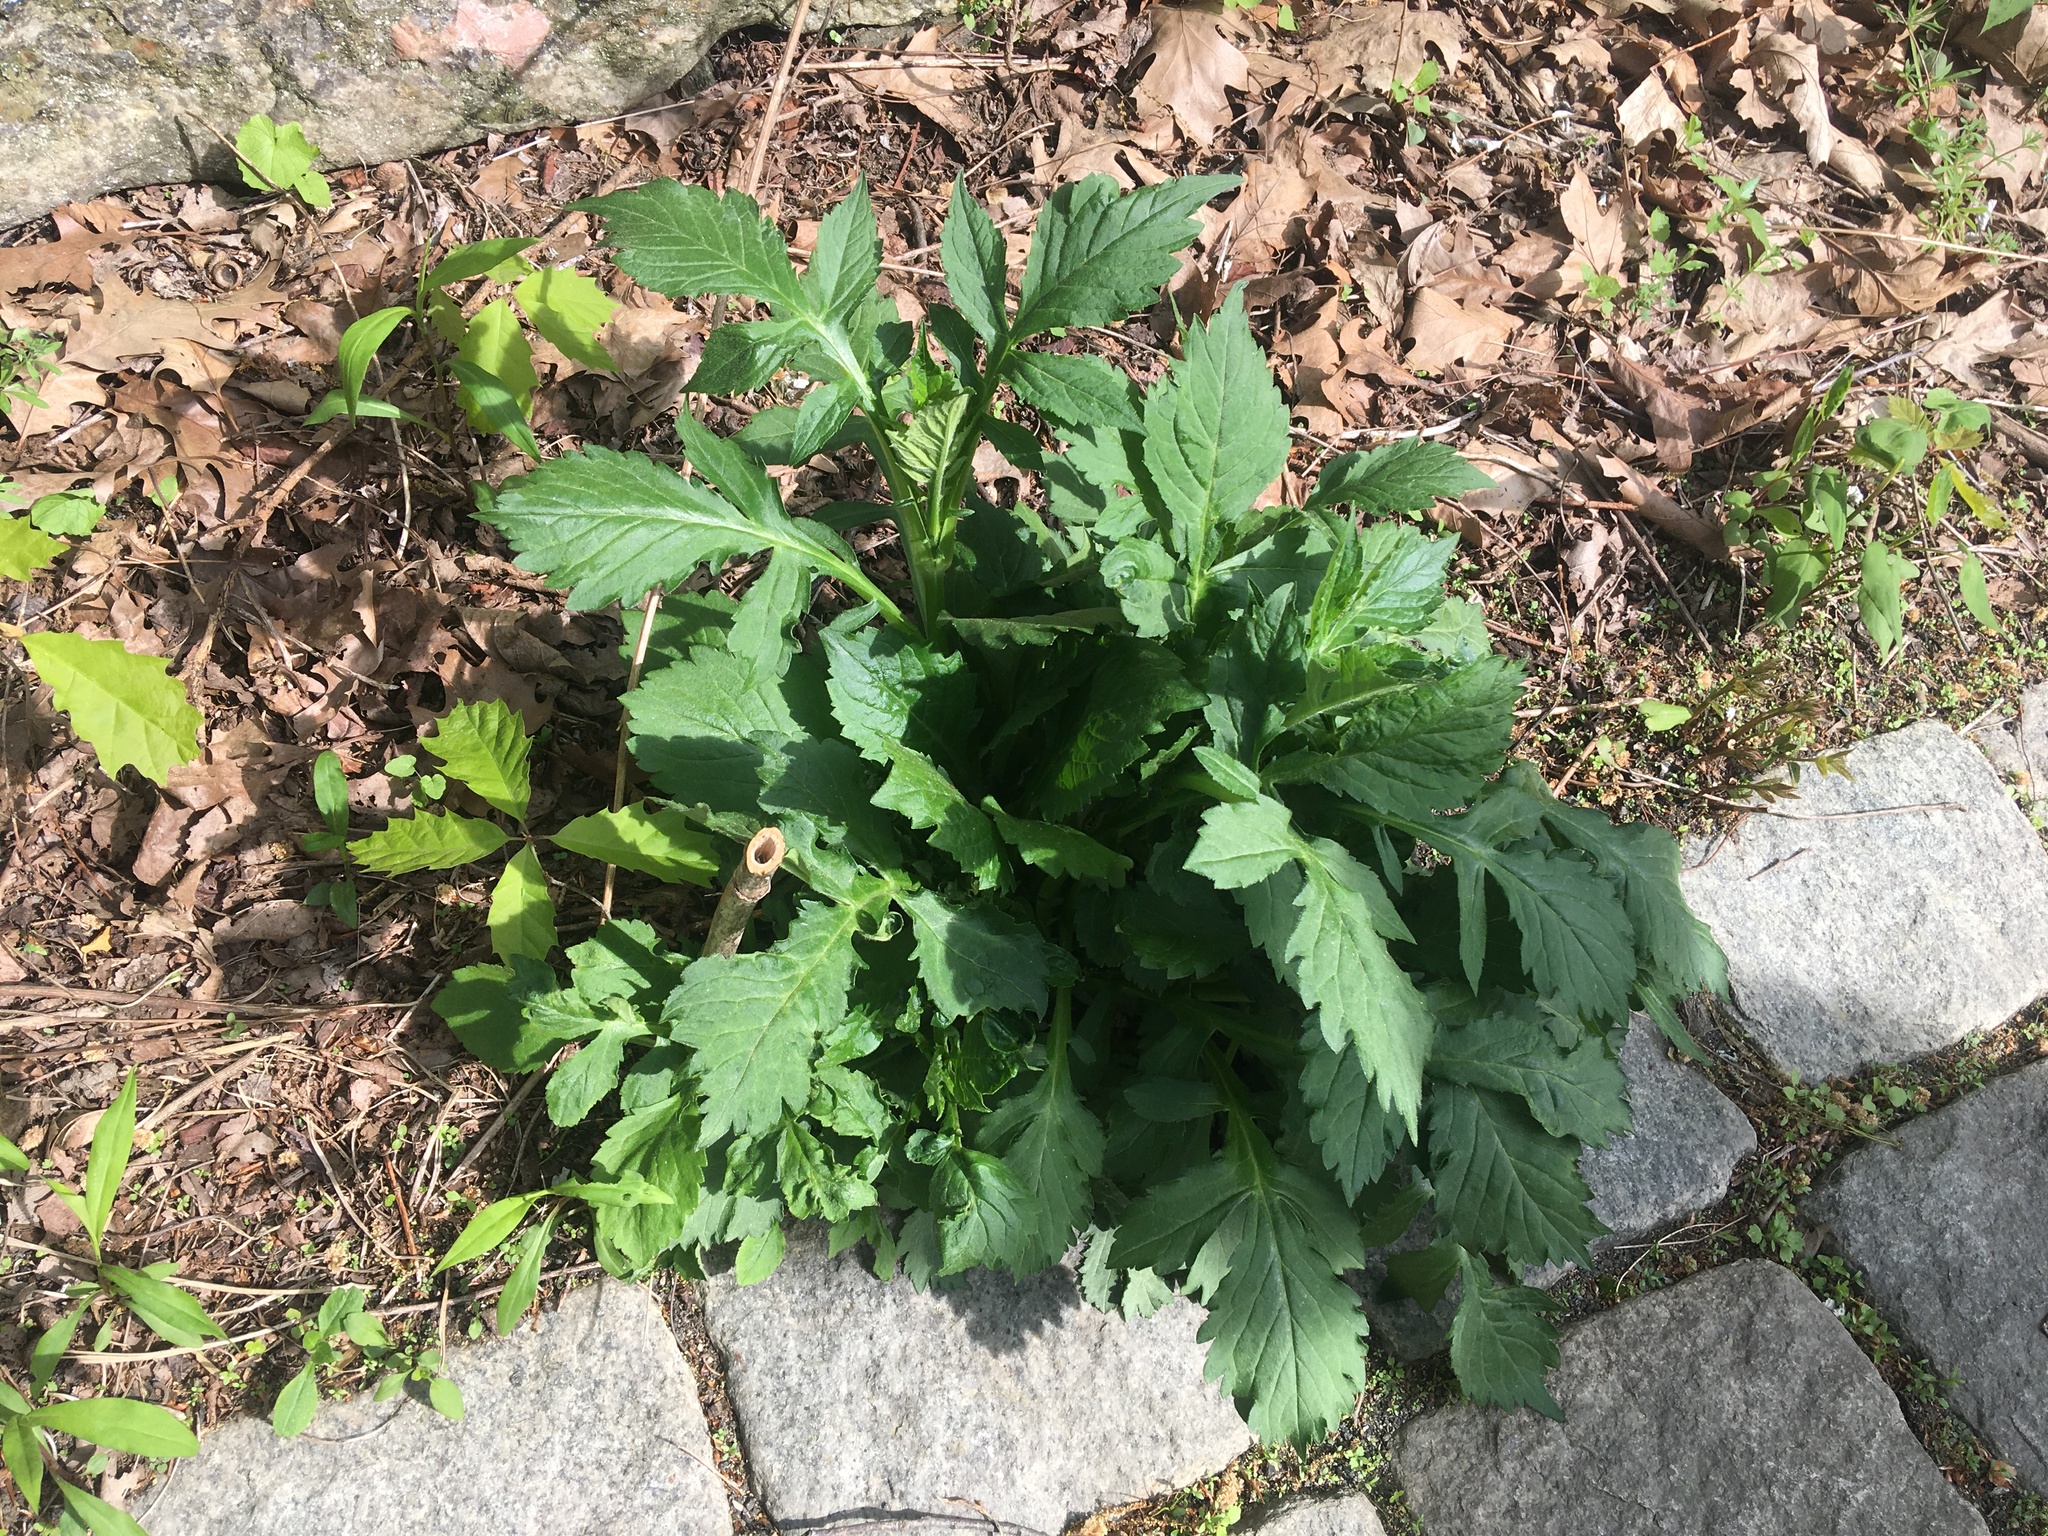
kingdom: Plantae
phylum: Tracheophyta
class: Magnoliopsida
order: Dipsacales
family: Caprifoliaceae
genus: Patrinia
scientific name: Patrinia villosa
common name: Patrinia
